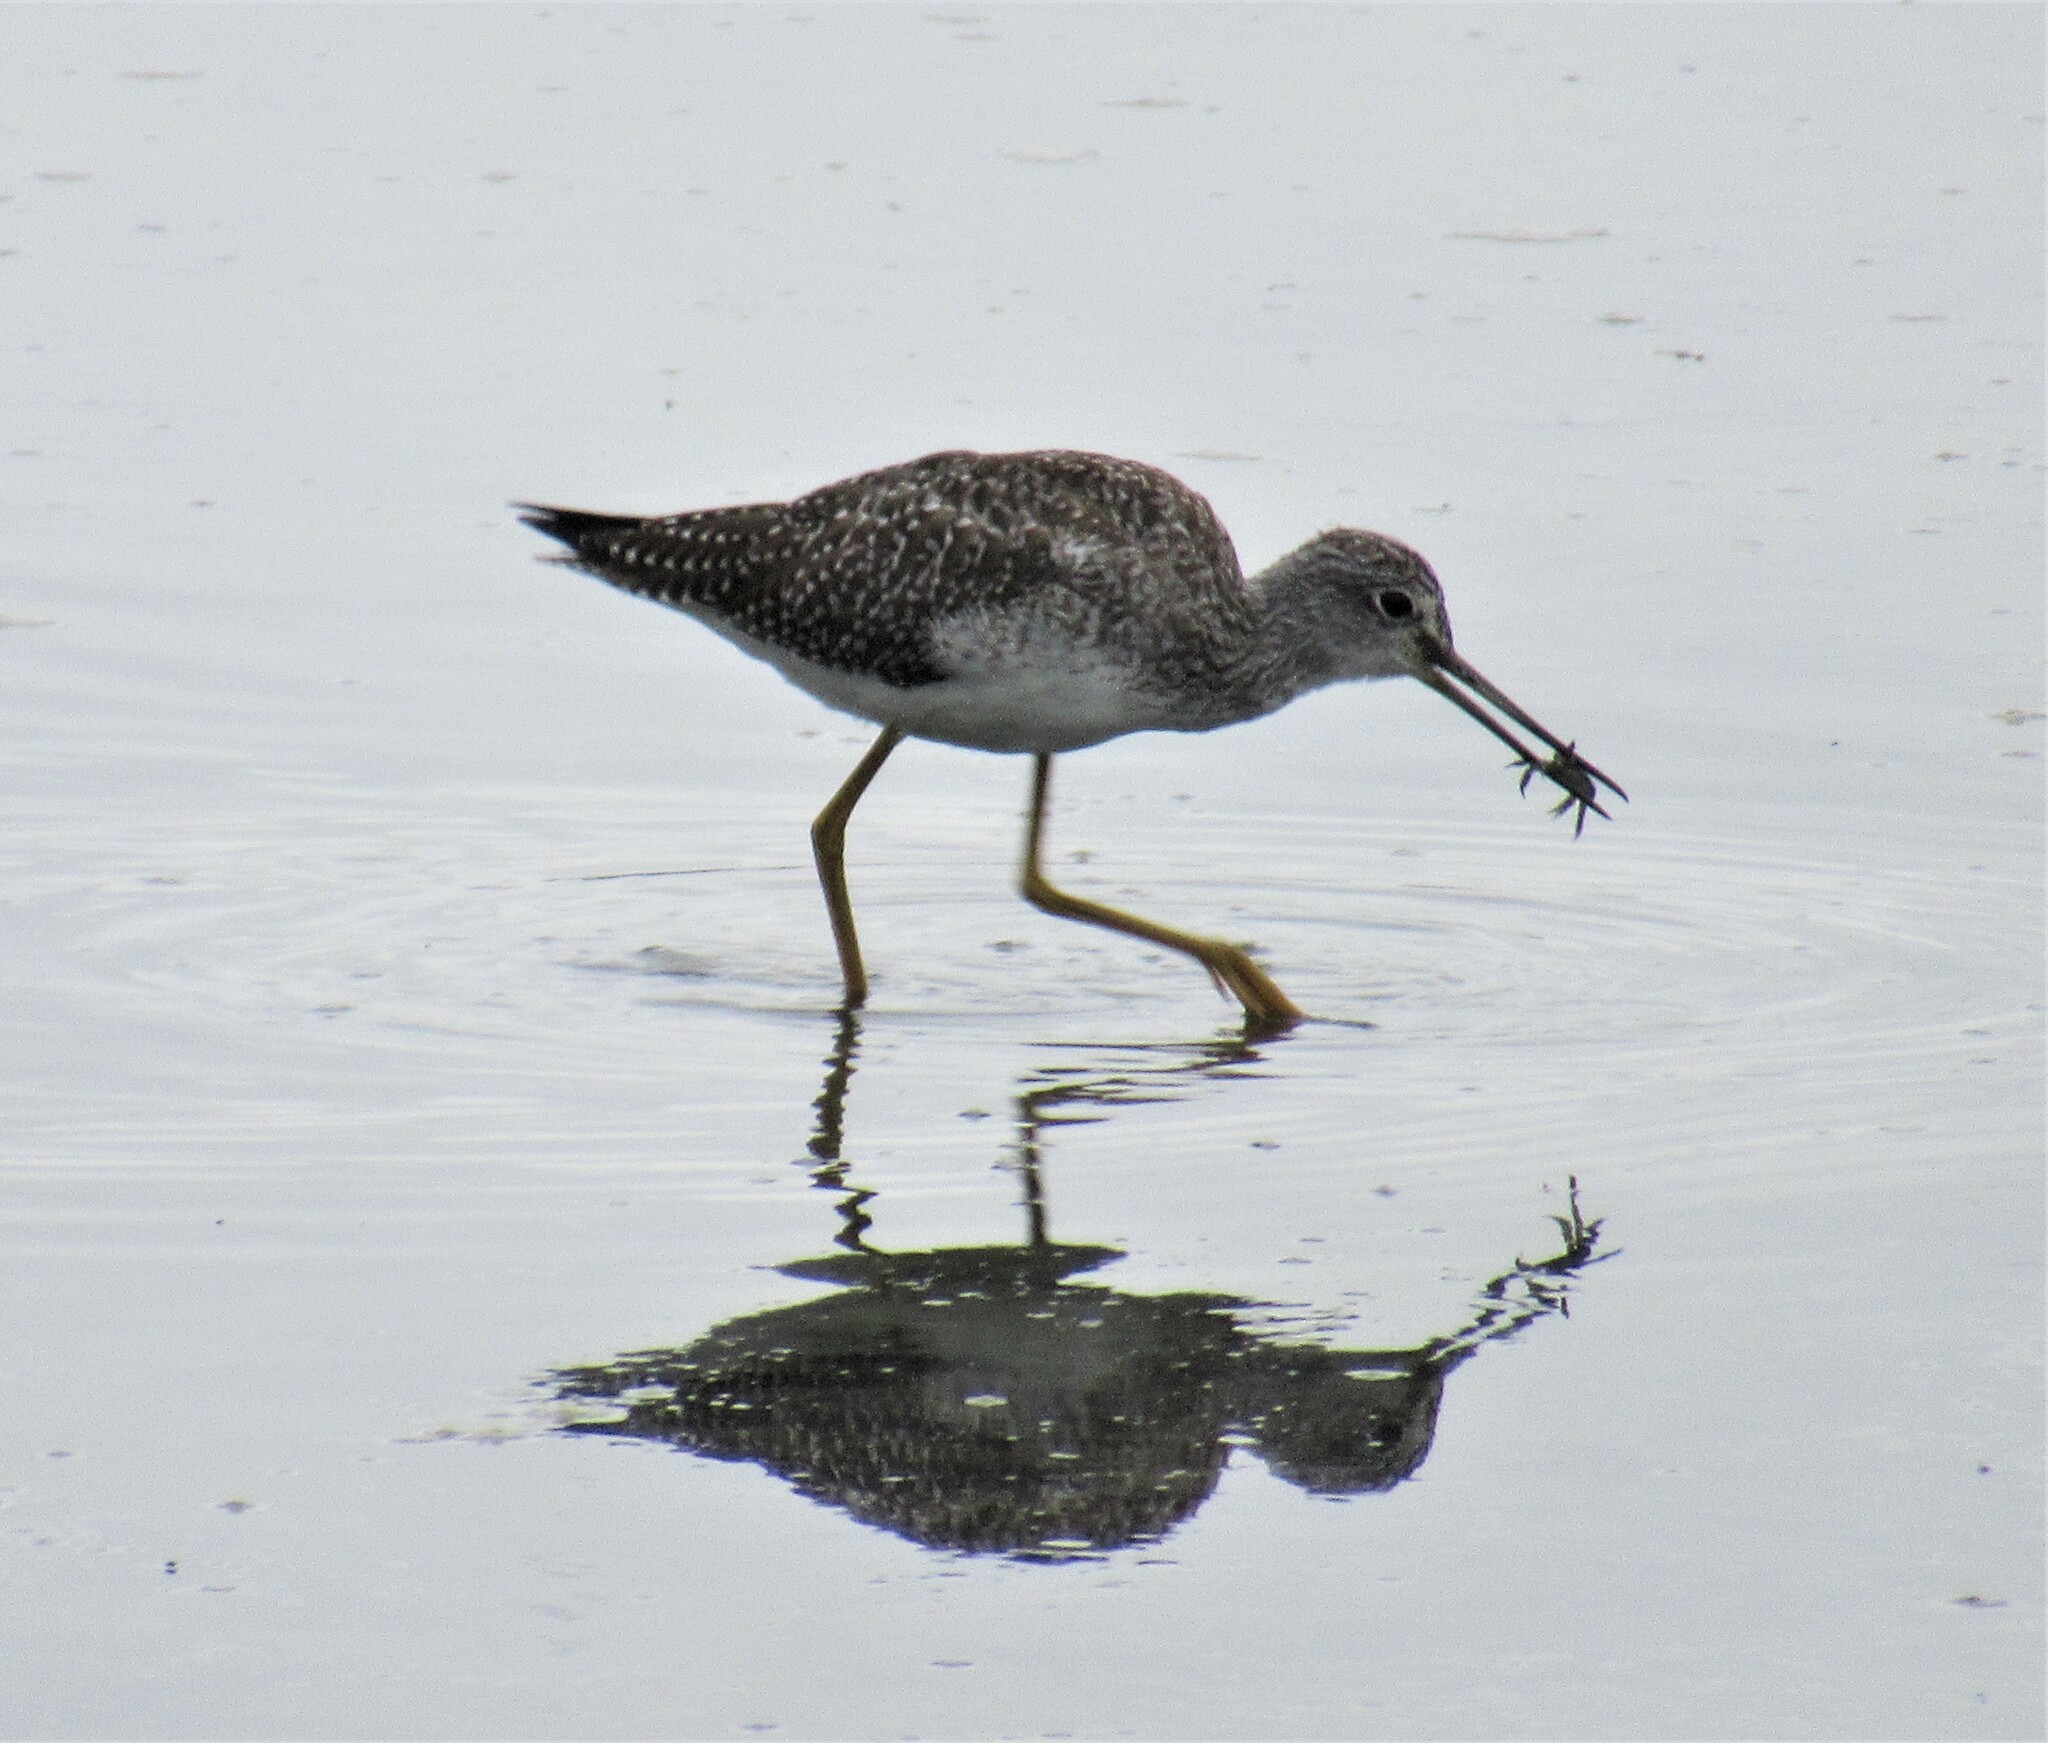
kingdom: Animalia
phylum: Chordata
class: Aves
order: Charadriiformes
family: Scolopacidae
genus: Tringa
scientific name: Tringa melanoleuca
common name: Greater yellowlegs
